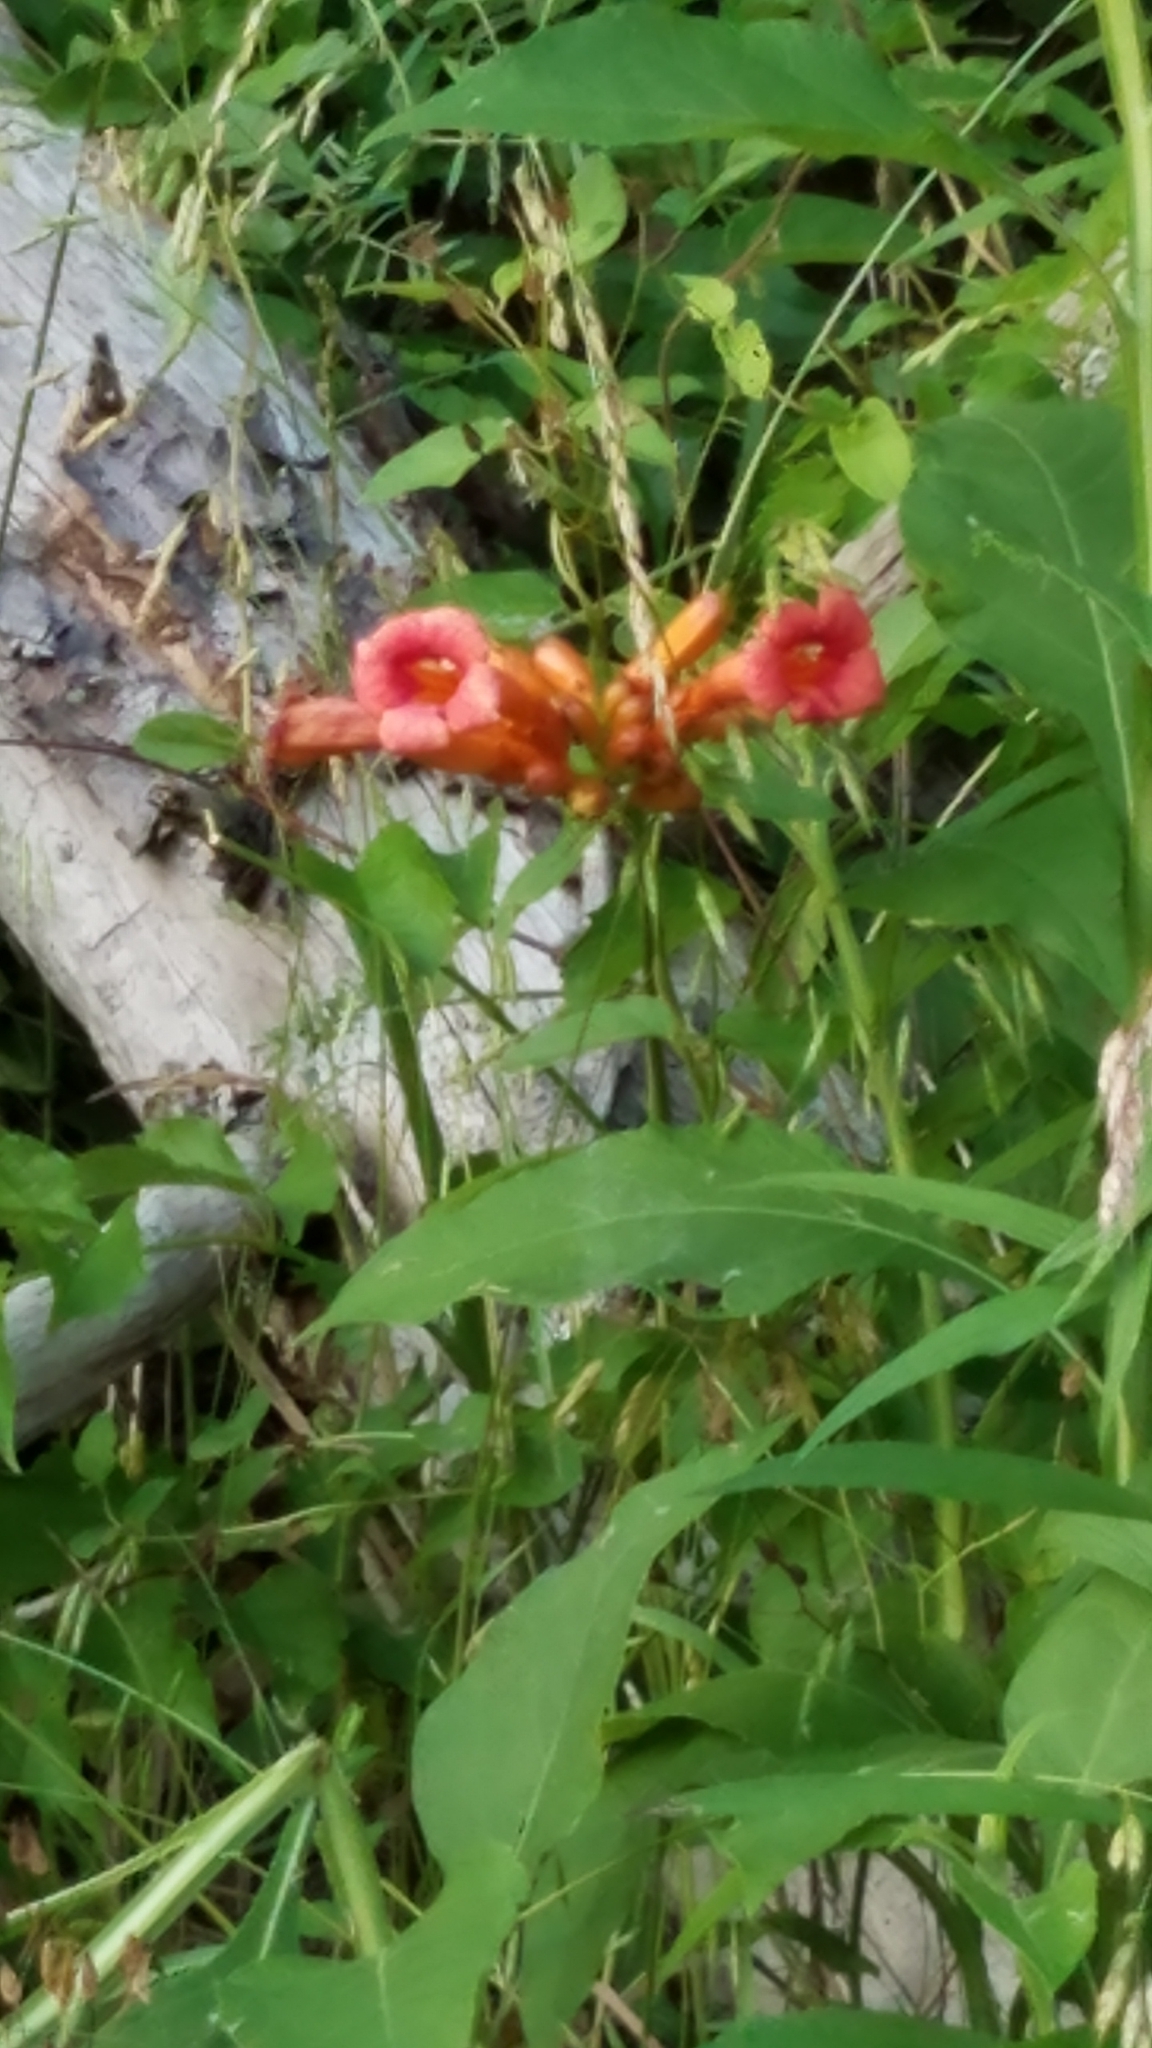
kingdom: Plantae
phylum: Tracheophyta
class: Magnoliopsida
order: Lamiales
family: Bignoniaceae
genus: Campsis
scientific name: Campsis radicans
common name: Trumpet-creeper
